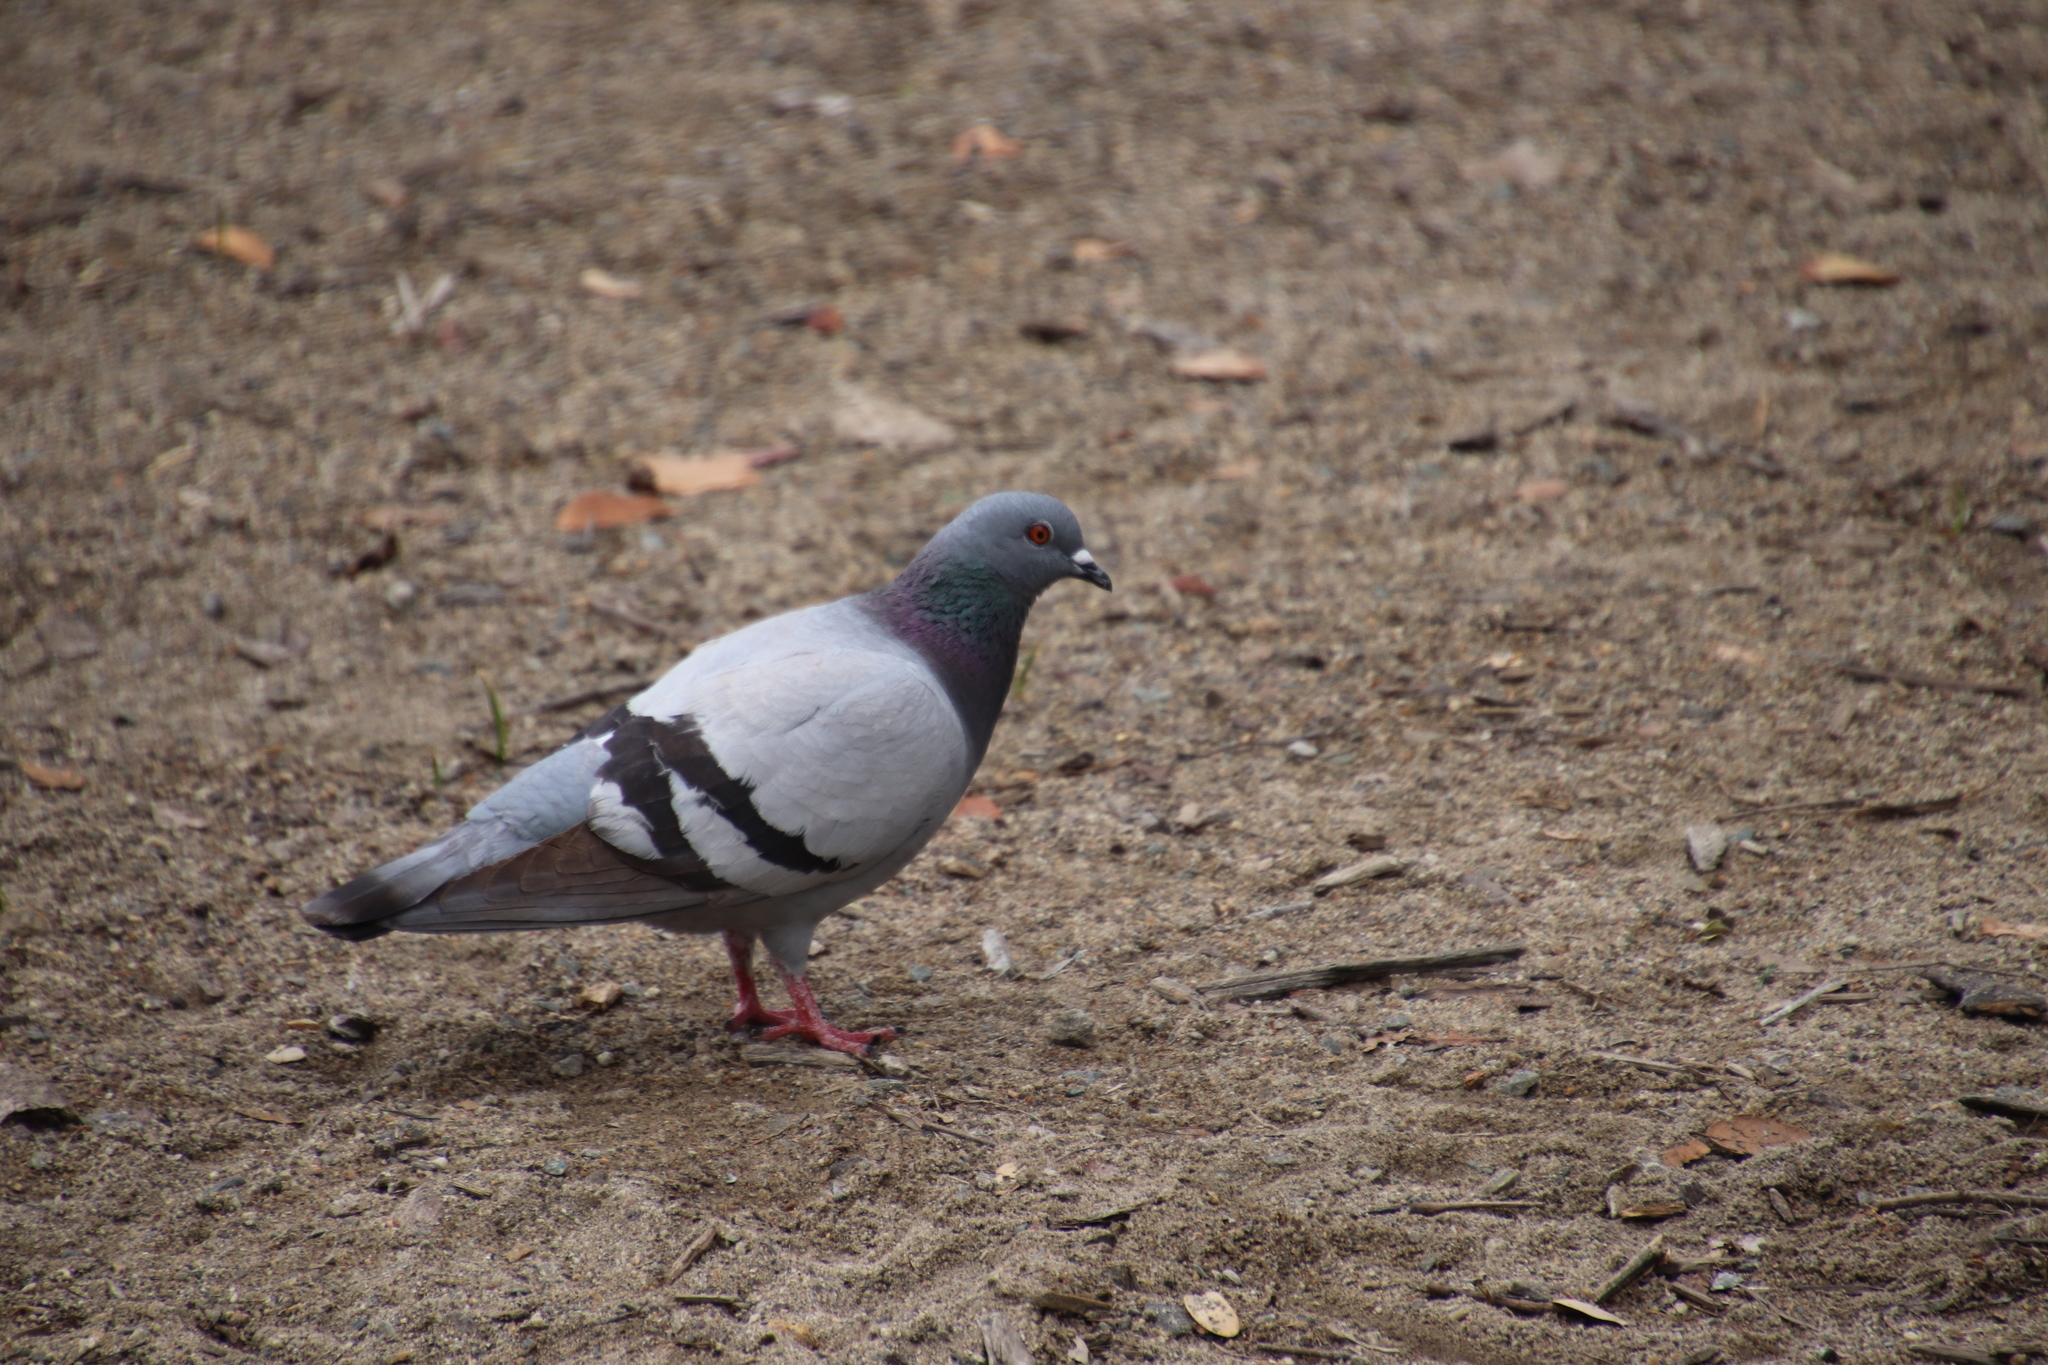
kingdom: Animalia
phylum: Chordata
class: Aves
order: Columbiformes
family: Columbidae
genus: Columba
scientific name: Columba livia
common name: Rock pigeon
